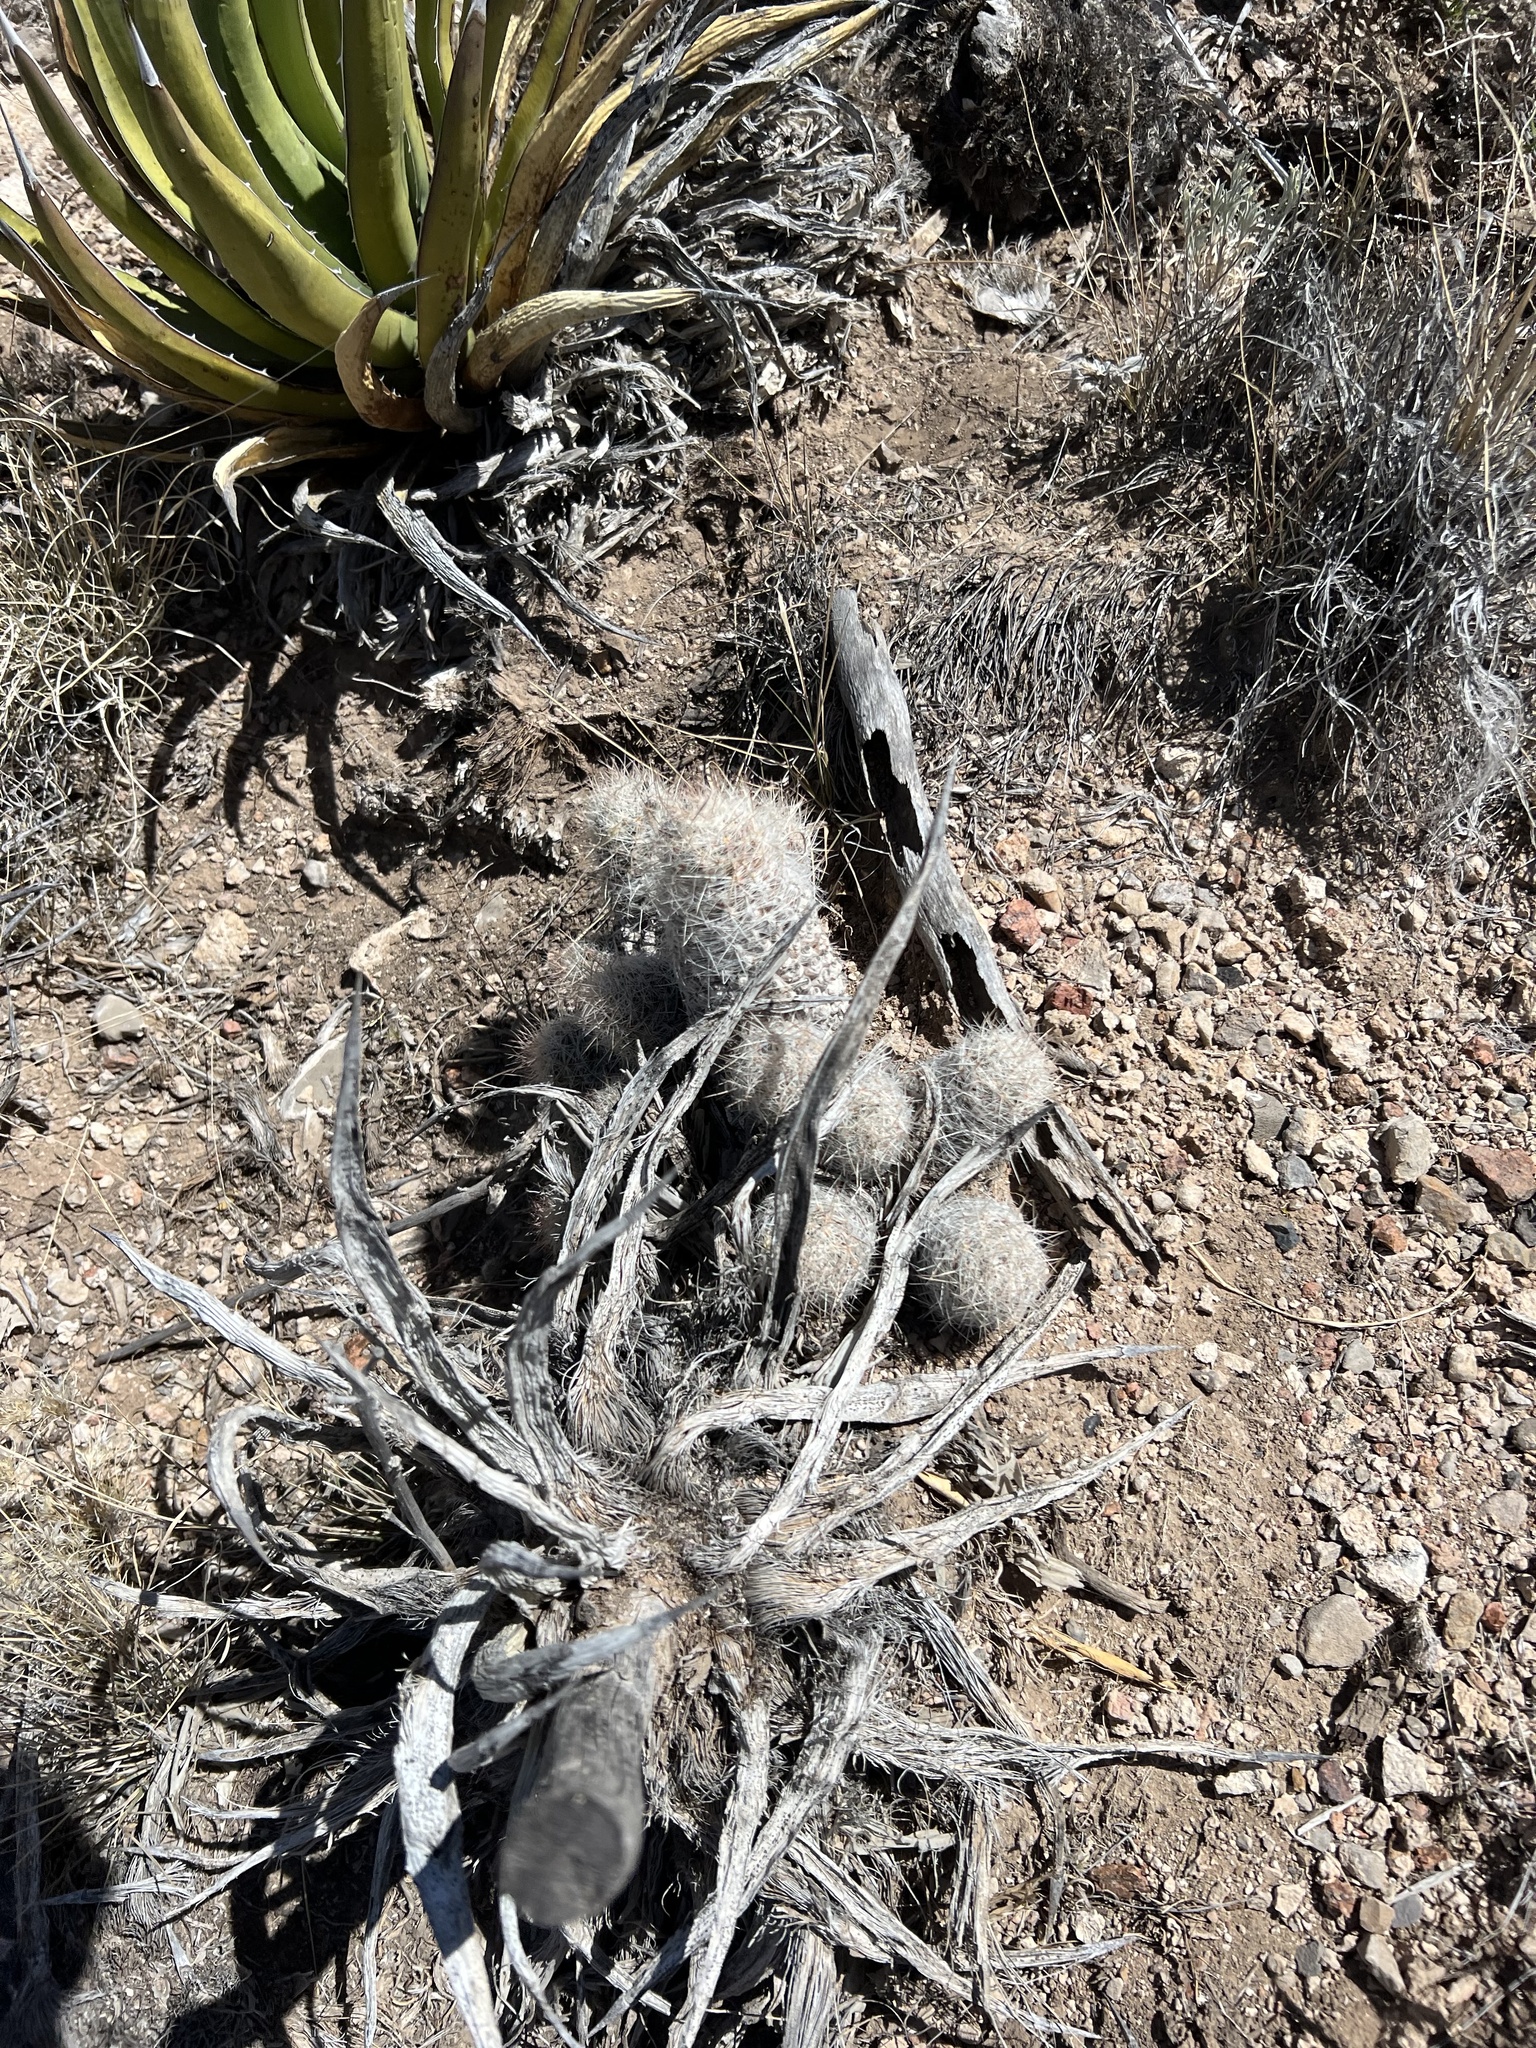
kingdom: Plantae
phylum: Tracheophyta
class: Magnoliopsida
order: Caryophyllales
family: Cactaceae
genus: Pelecyphora
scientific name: Pelecyphora tuberculosa
